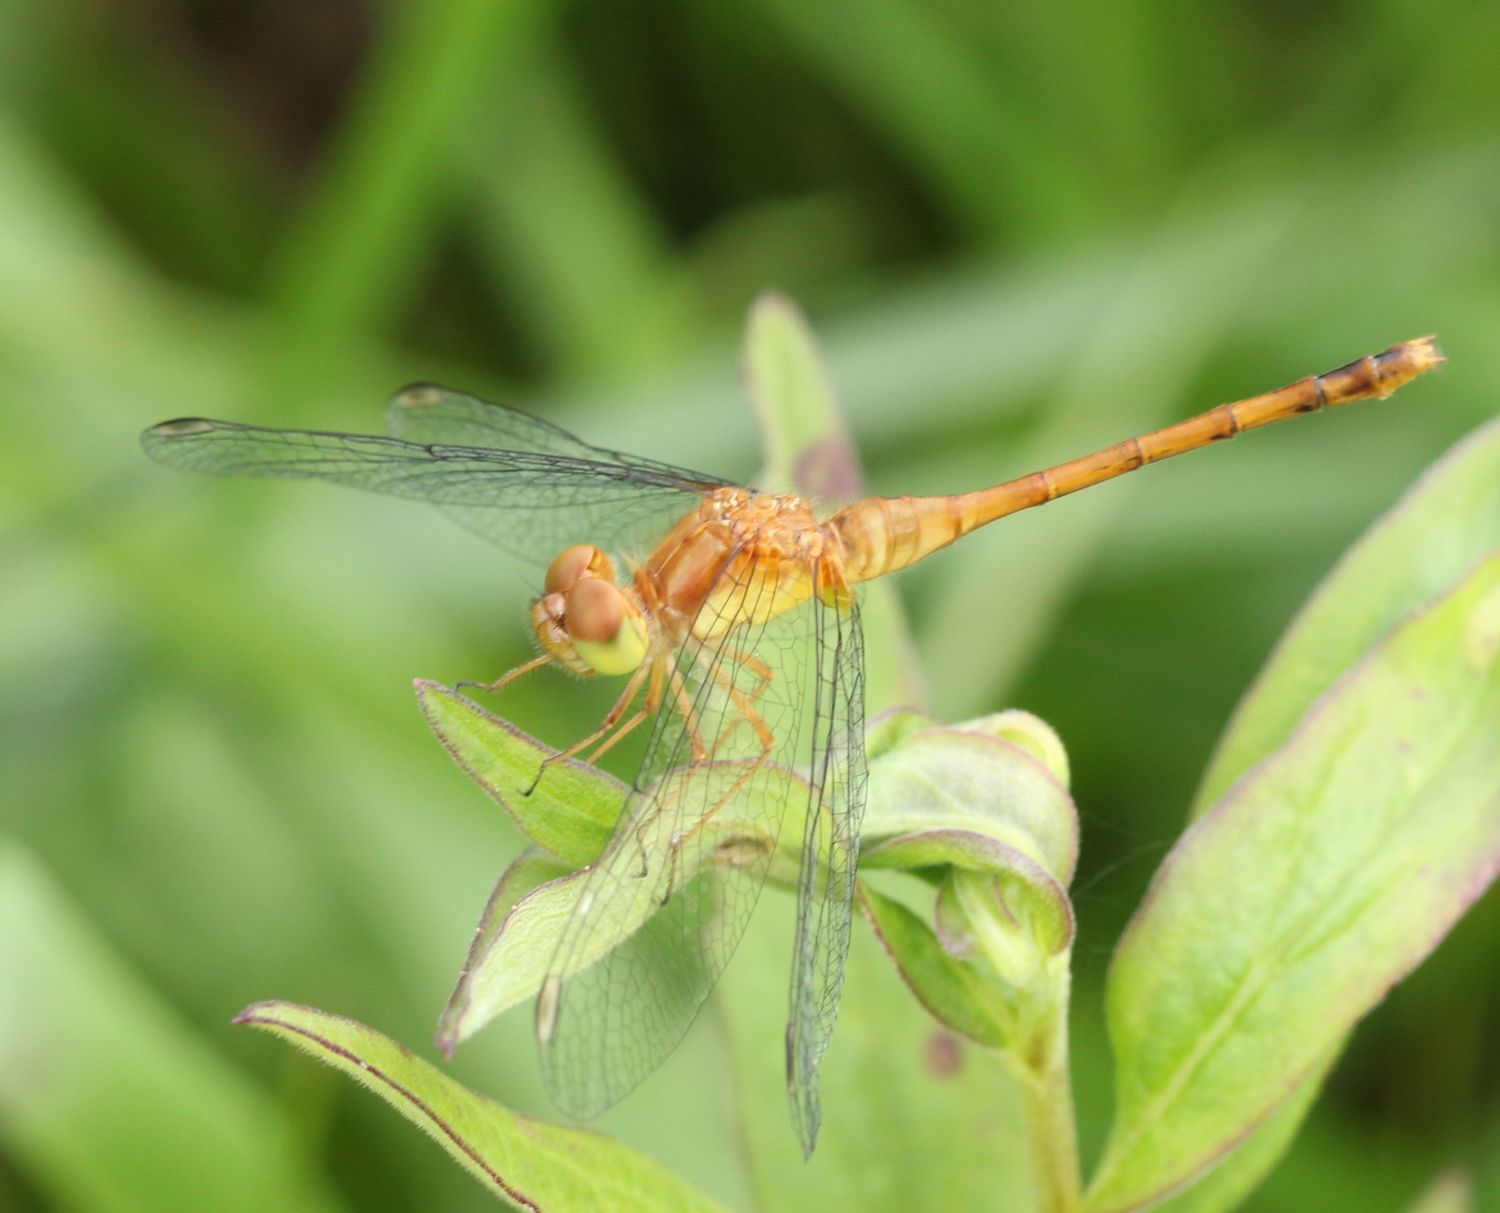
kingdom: Animalia
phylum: Arthropoda
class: Insecta
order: Odonata
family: Libellulidae
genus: Sympetrum
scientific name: Sympetrum vicinum
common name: Autumn meadowhawk
